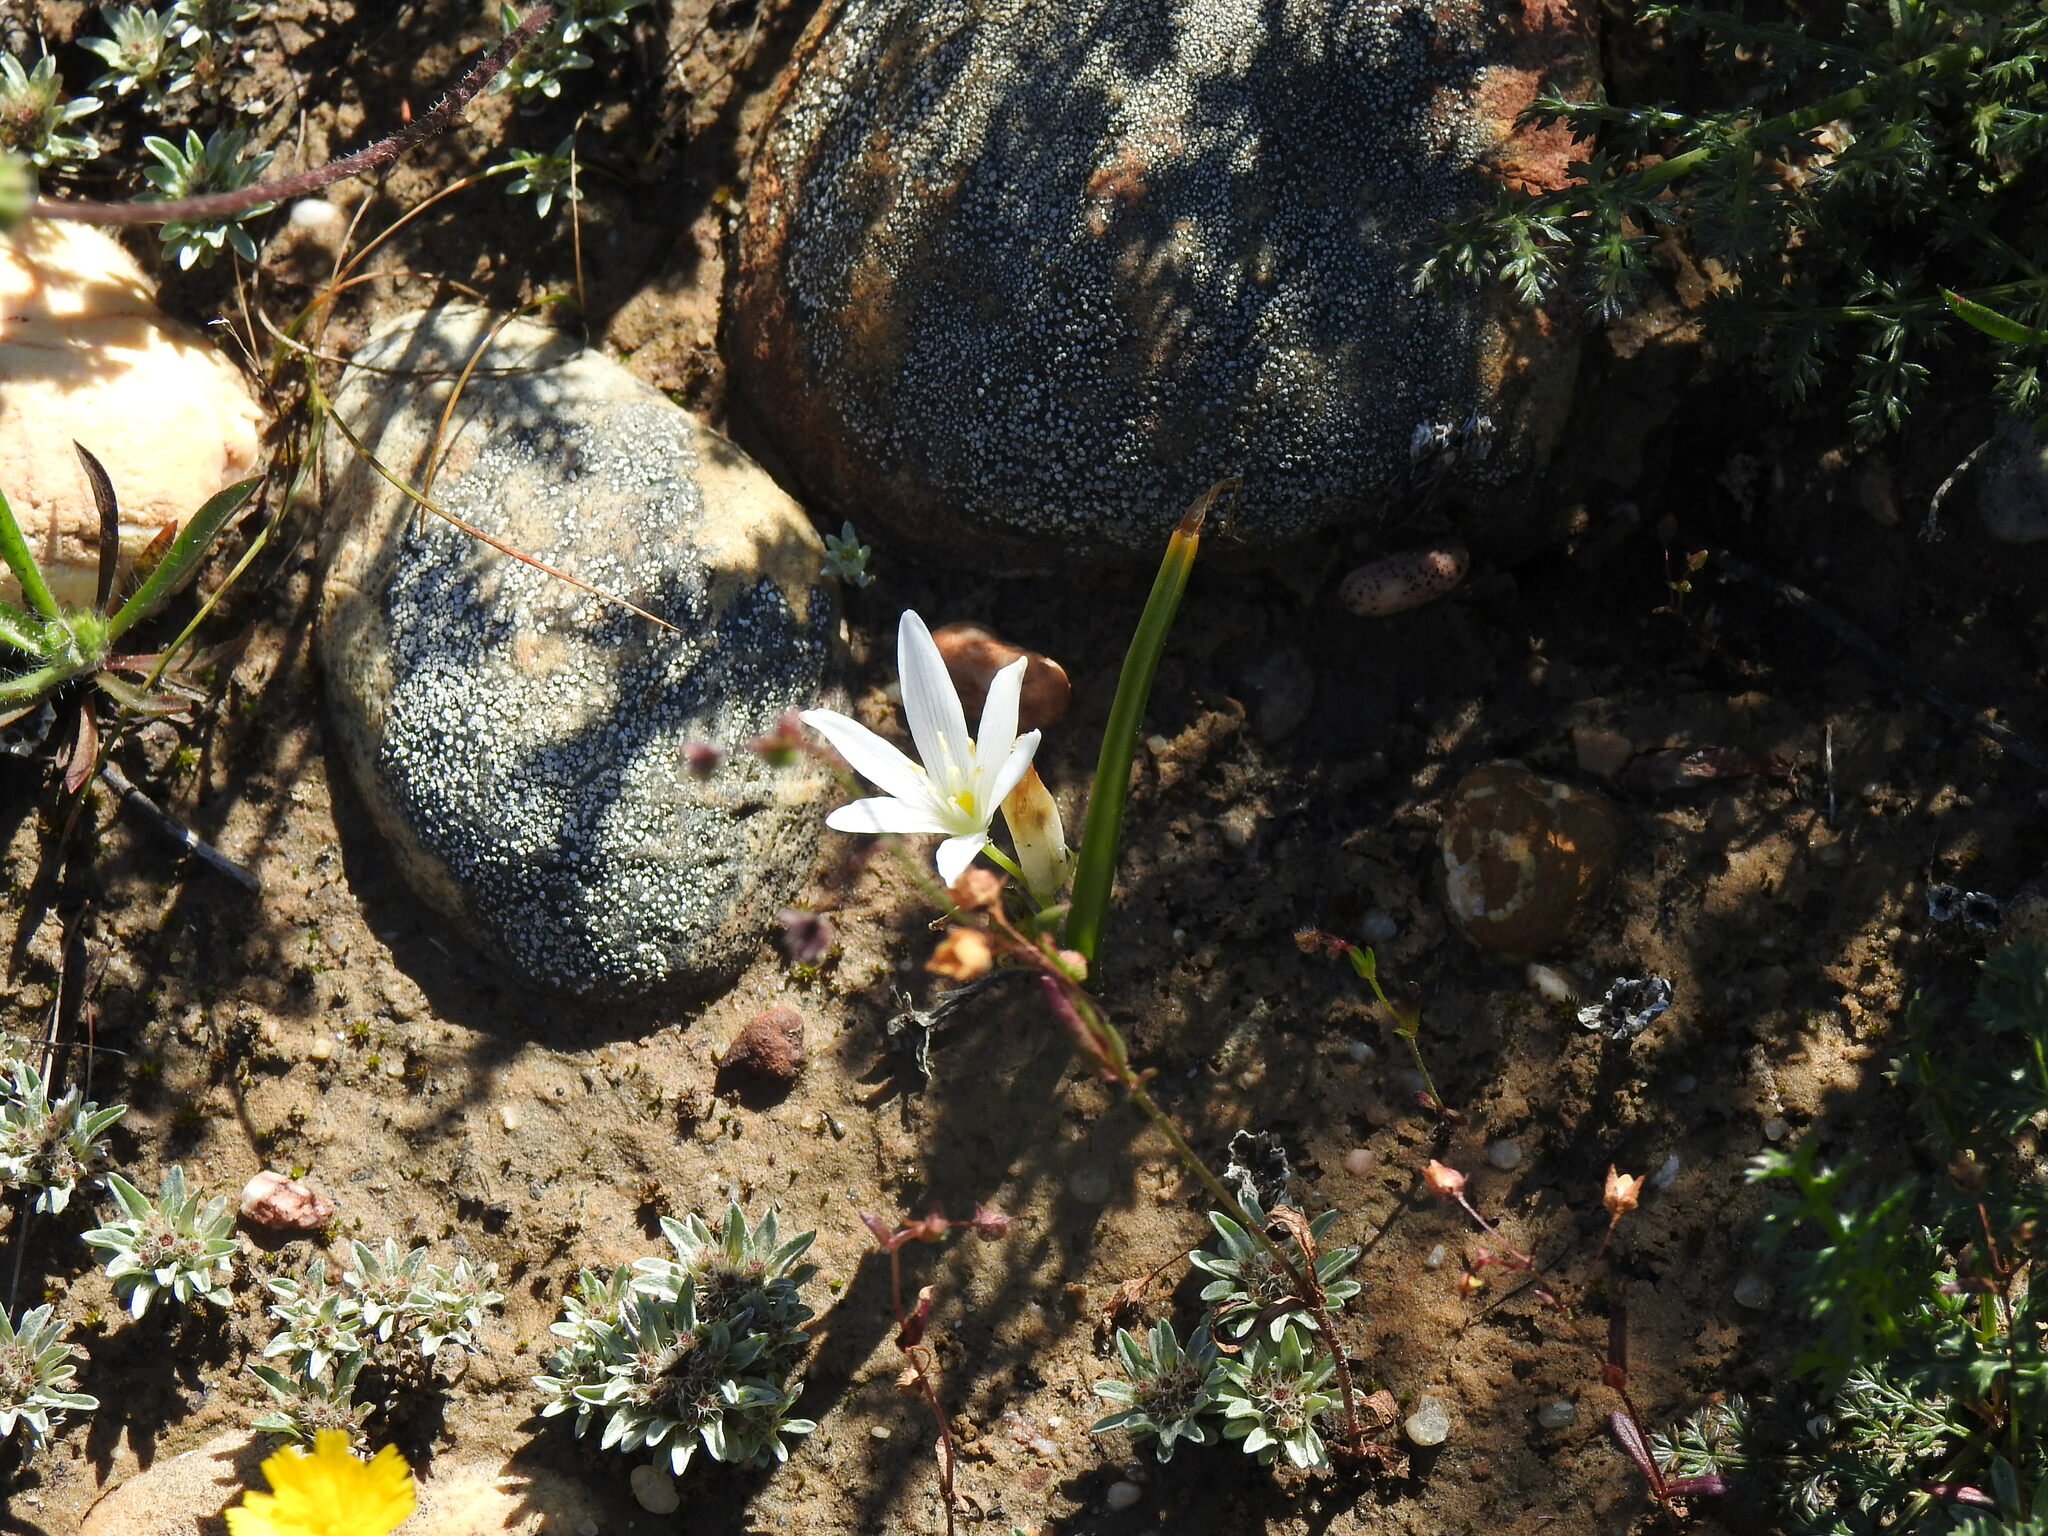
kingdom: Plantae
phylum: Tracheophyta
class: Liliopsida
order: Asparagales
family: Asparagaceae
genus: Ornithogalum
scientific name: Ornithogalum broteroi
